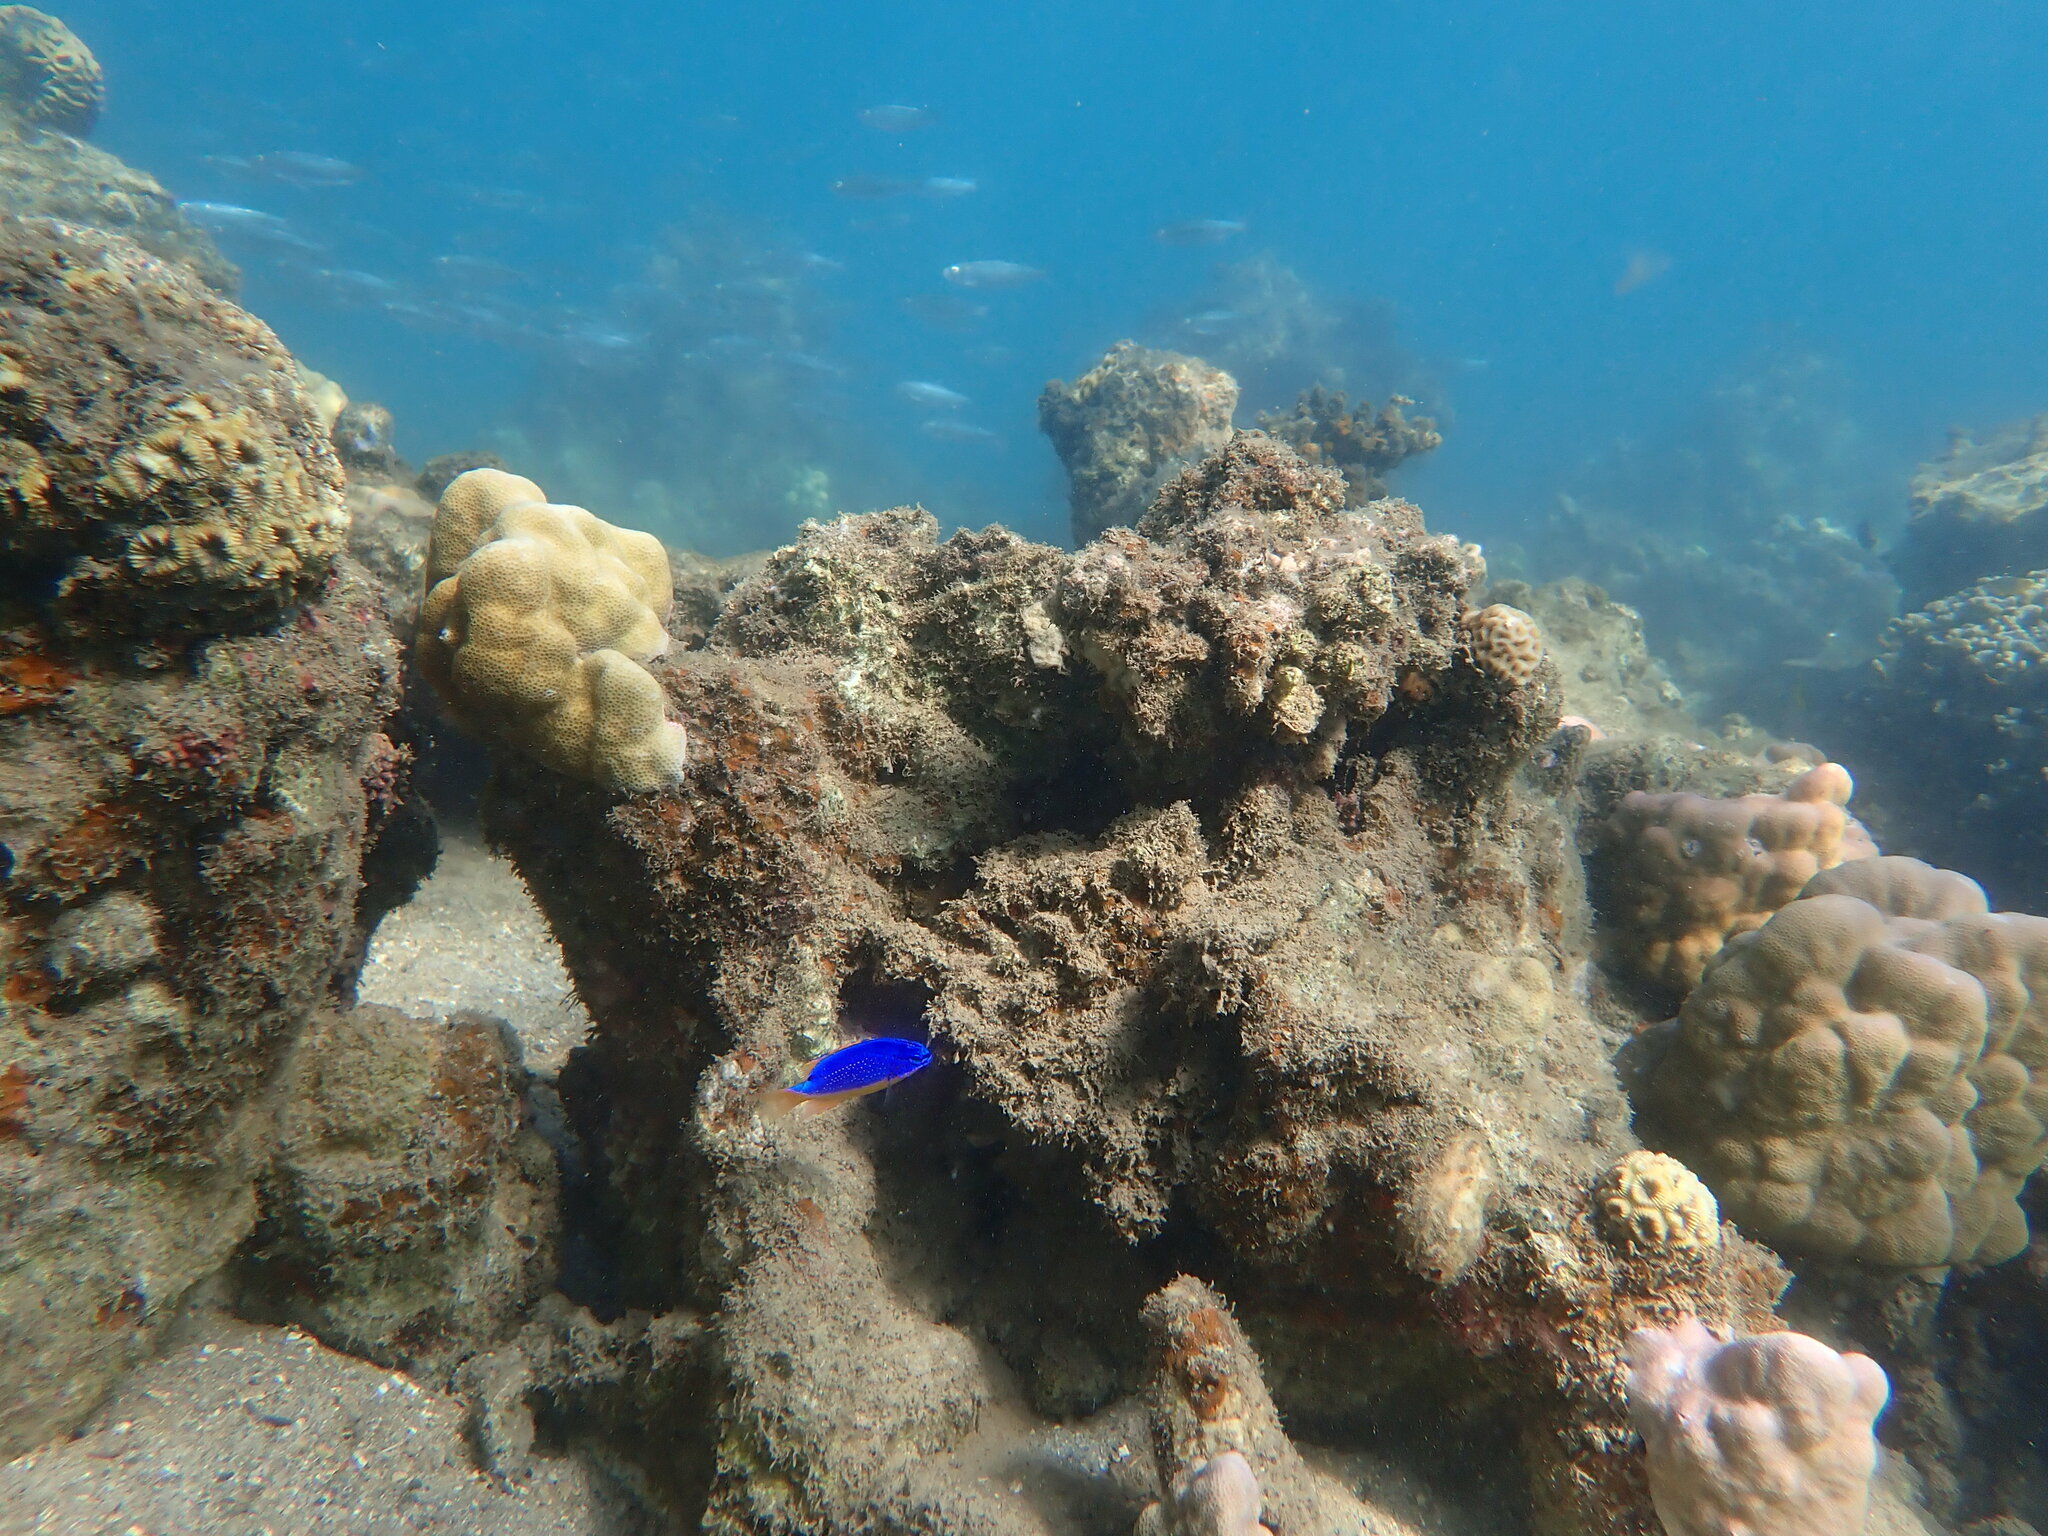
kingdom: Animalia
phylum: Chordata
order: Perciformes
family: Pomacentridae
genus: Chrysiptera
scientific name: Chrysiptera taupou
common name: Fiji damsel
